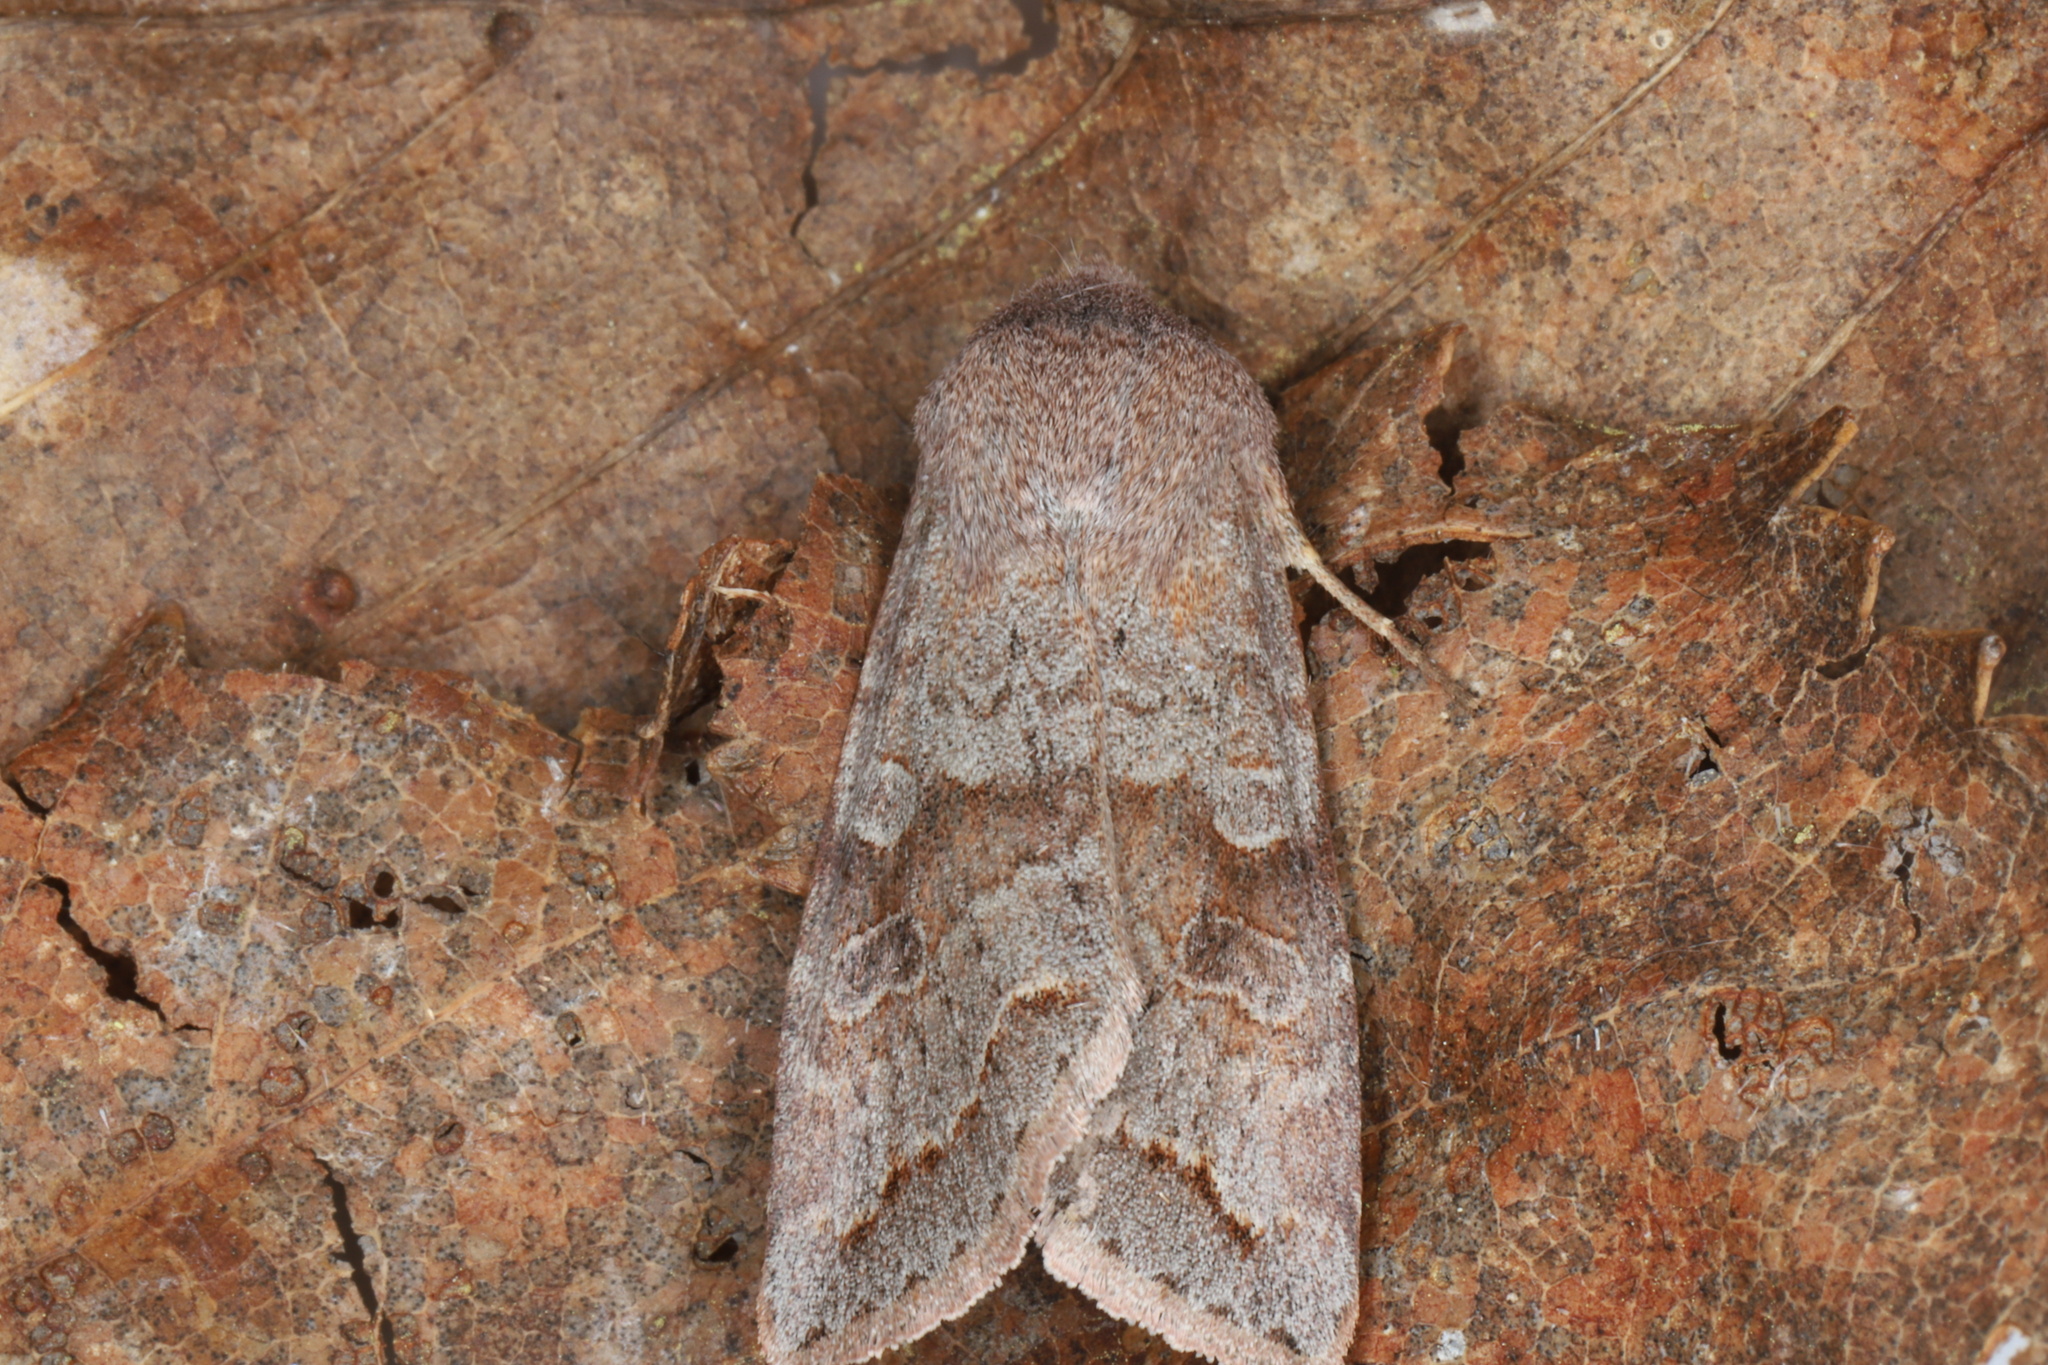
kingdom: Animalia
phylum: Arthropoda
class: Insecta
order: Lepidoptera
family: Noctuidae
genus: Orthosia
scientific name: Orthosia revicta
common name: Rusty whitesided caterpillar
